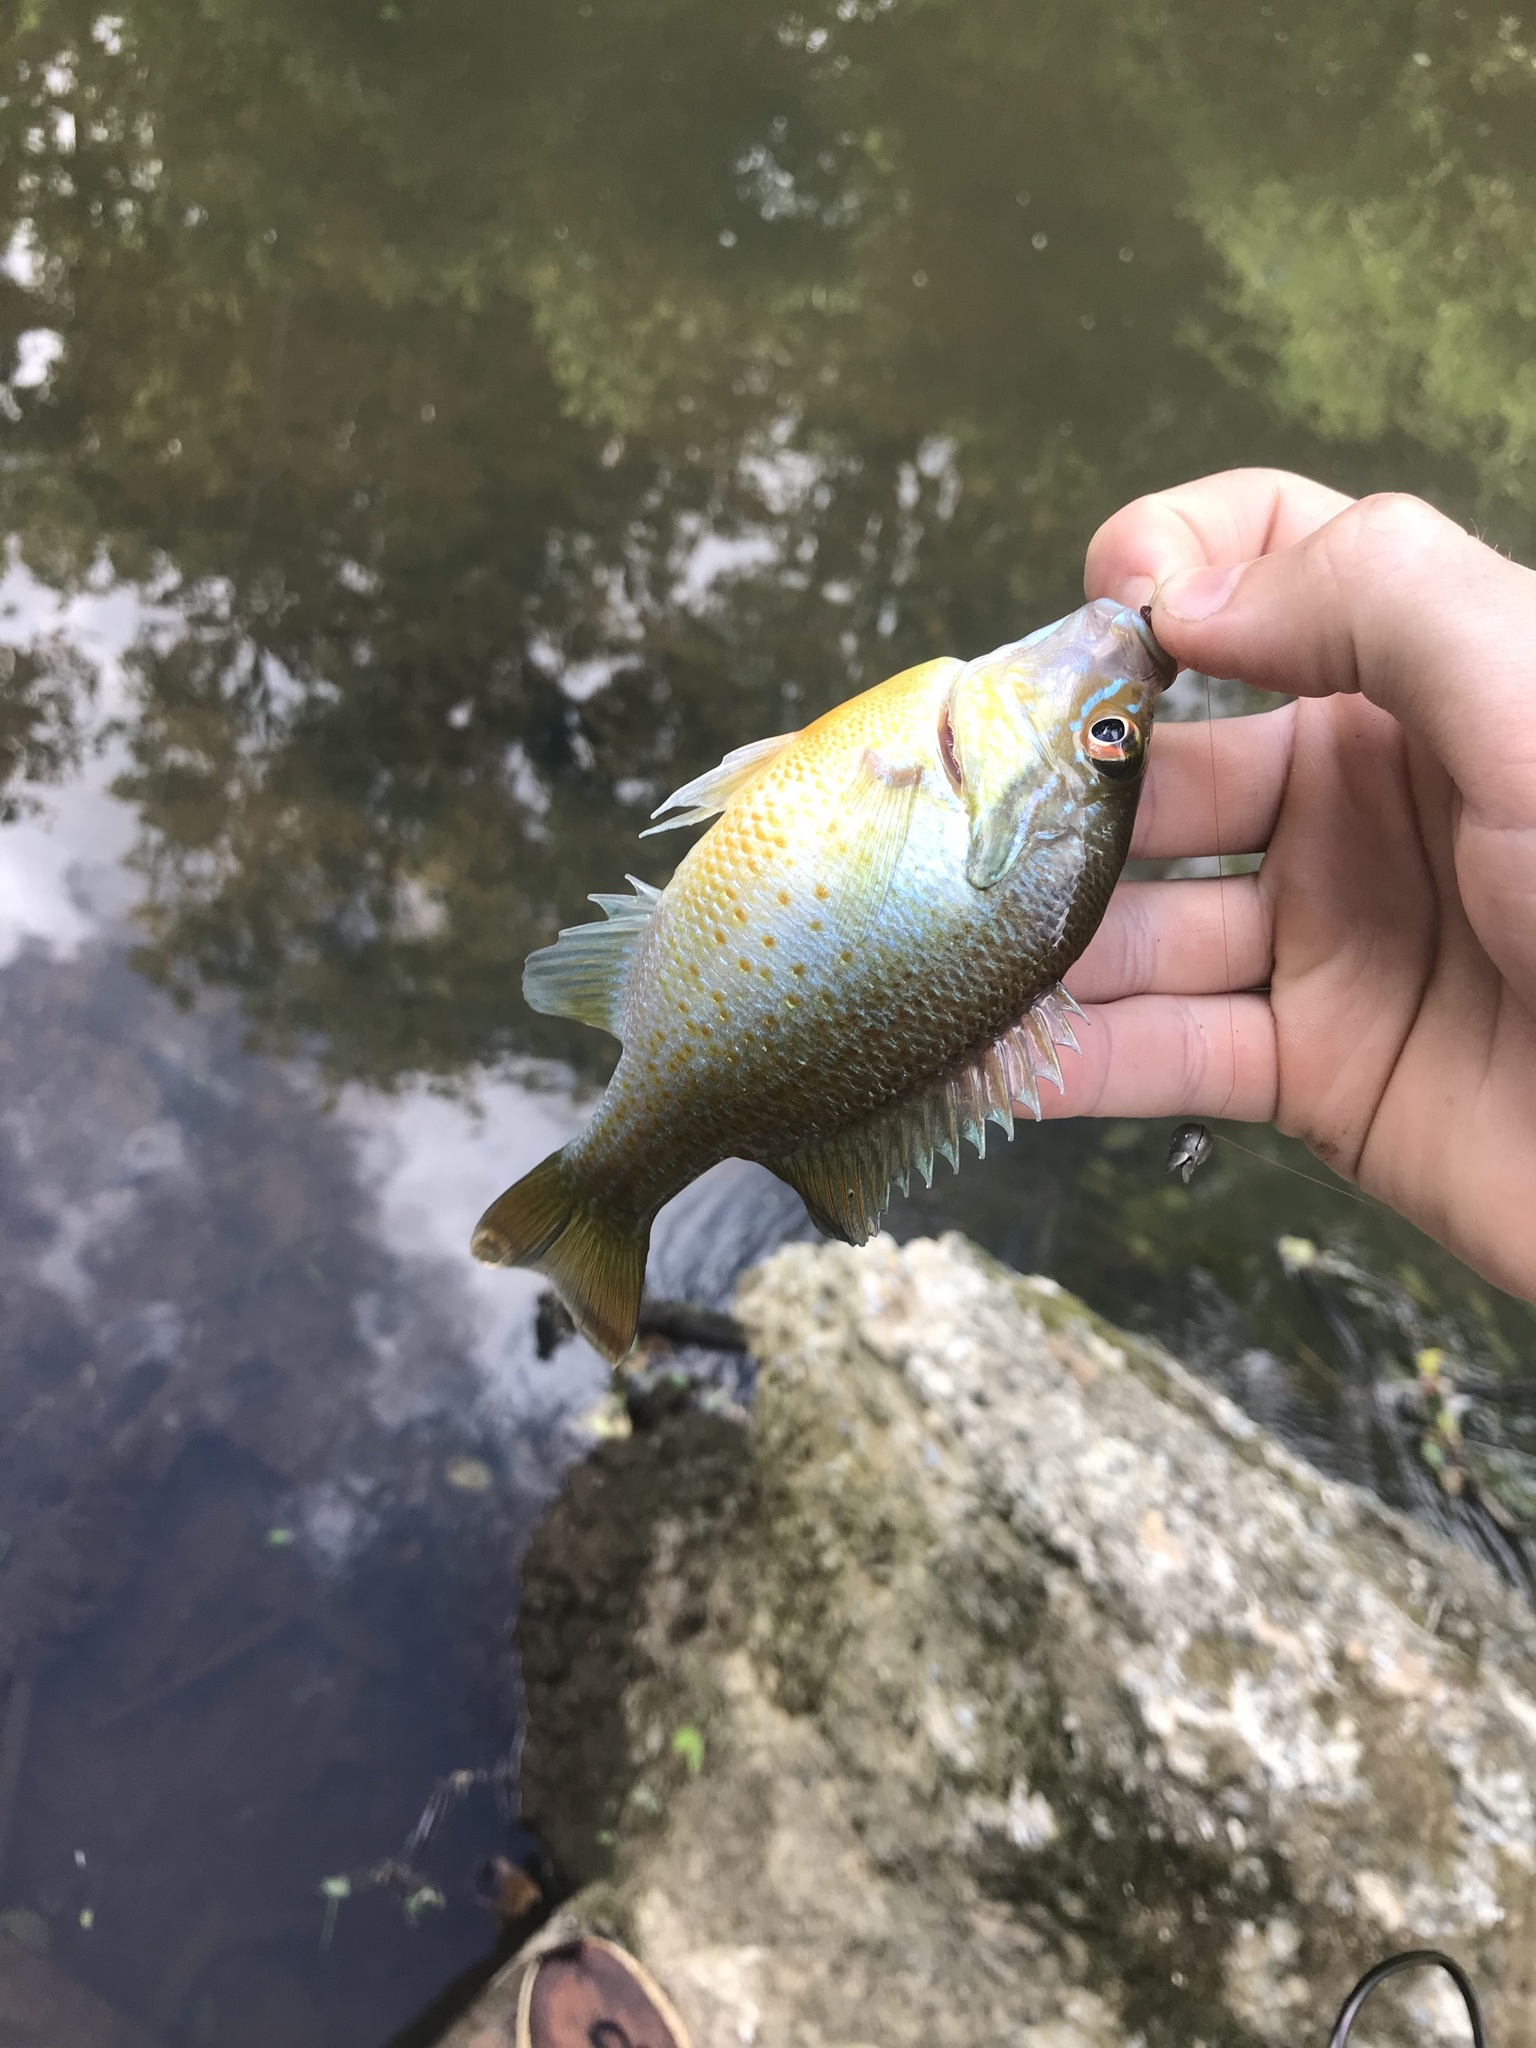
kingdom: Animalia
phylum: Chordata
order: Perciformes
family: Centrarchidae
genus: Lepomis
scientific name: Lepomis auritus
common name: Redbreast sunfish
